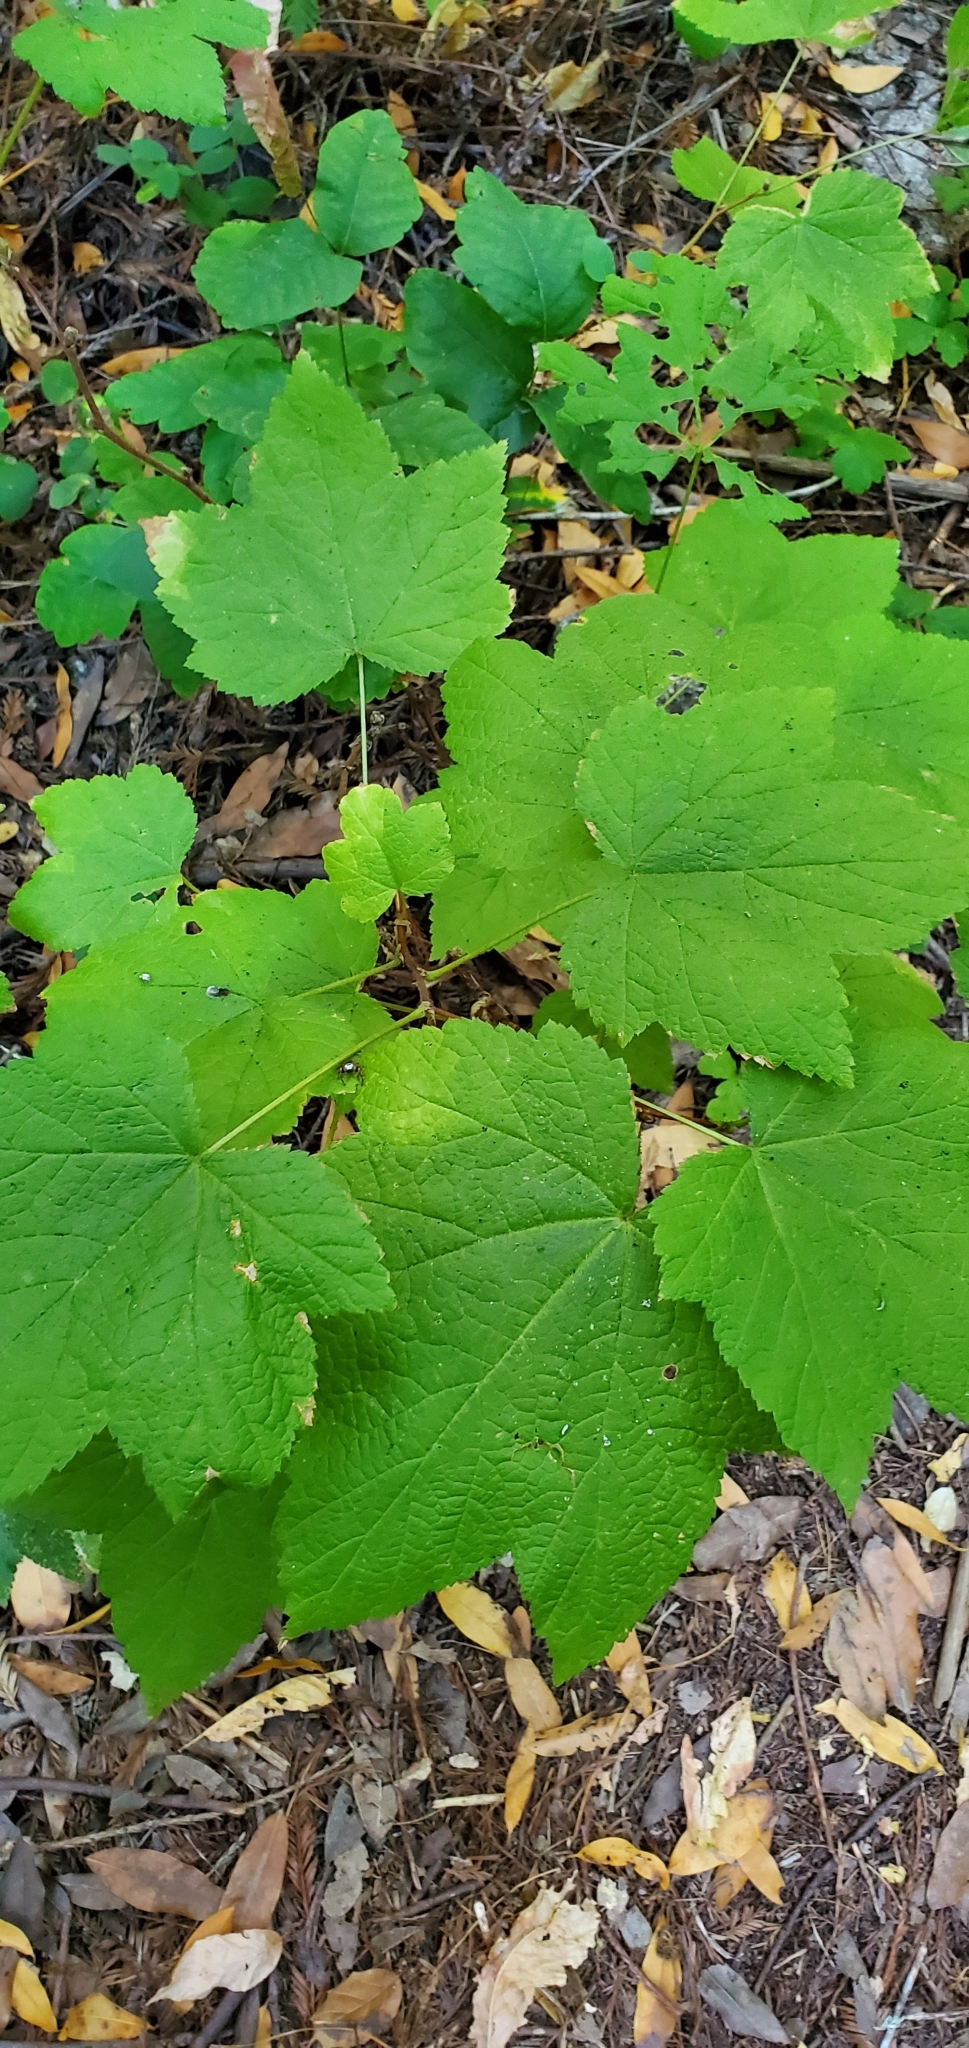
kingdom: Plantae
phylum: Tracheophyta
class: Magnoliopsida
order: Rosales
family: Rosaceae
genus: Rubus
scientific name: Rubus parviflorus
